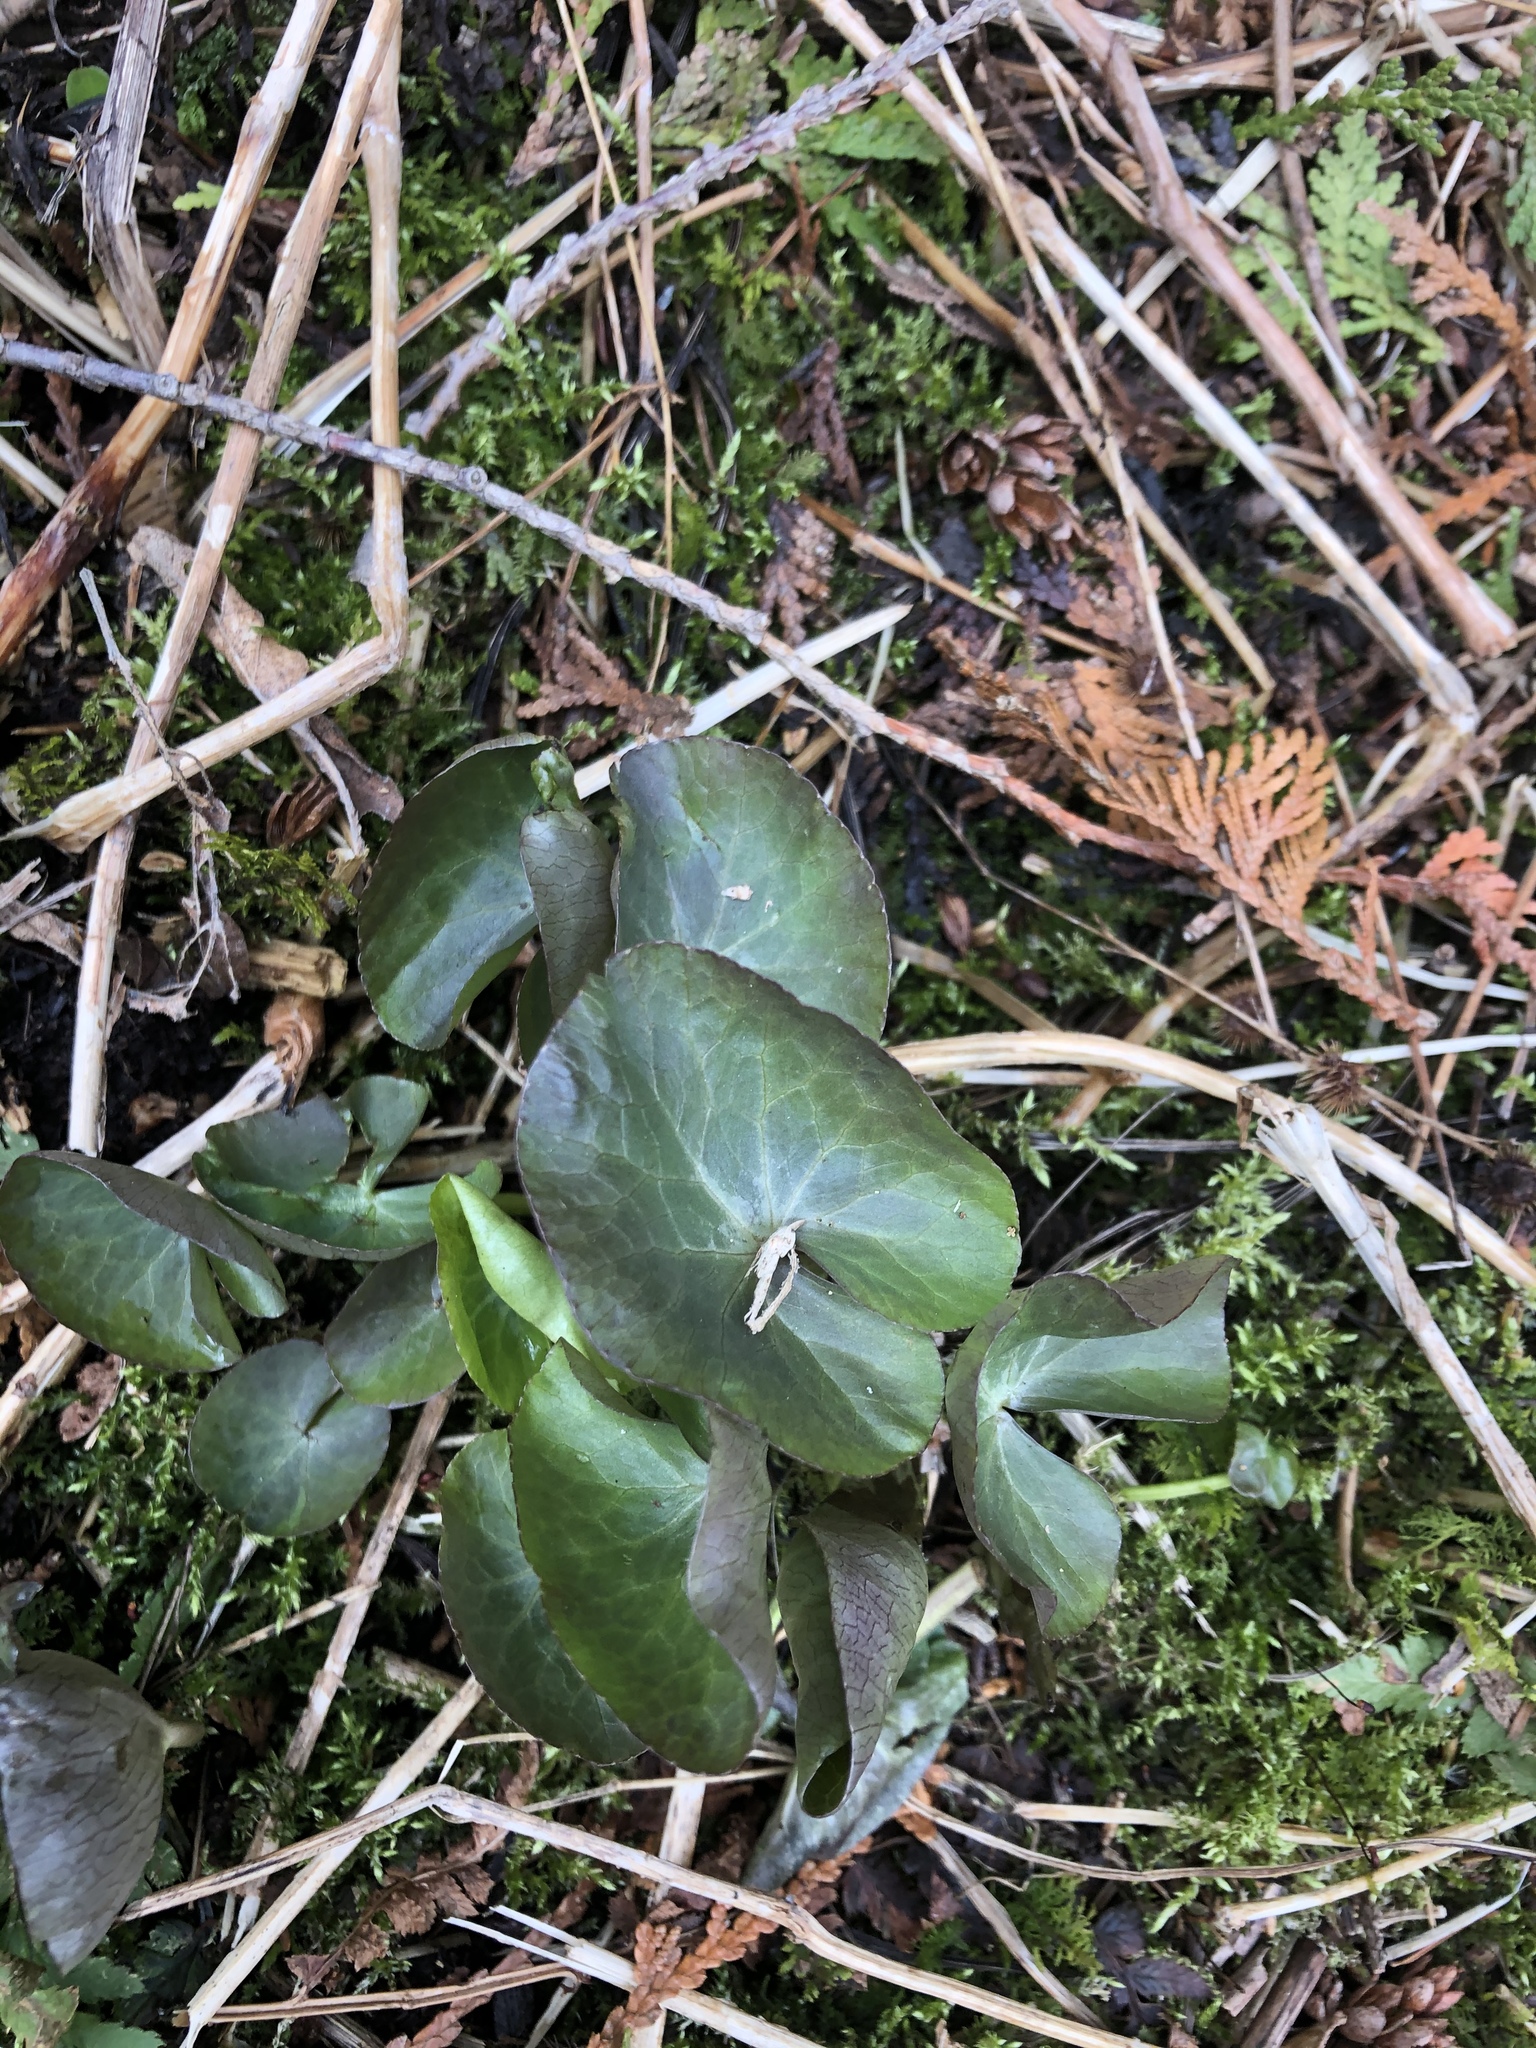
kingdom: Plantae
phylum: Tracheophyta
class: Magnoliopsida
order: Ranunculales
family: Ranunculaceae
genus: Caltha
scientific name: Caltha palustris
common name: Marsh marigold
